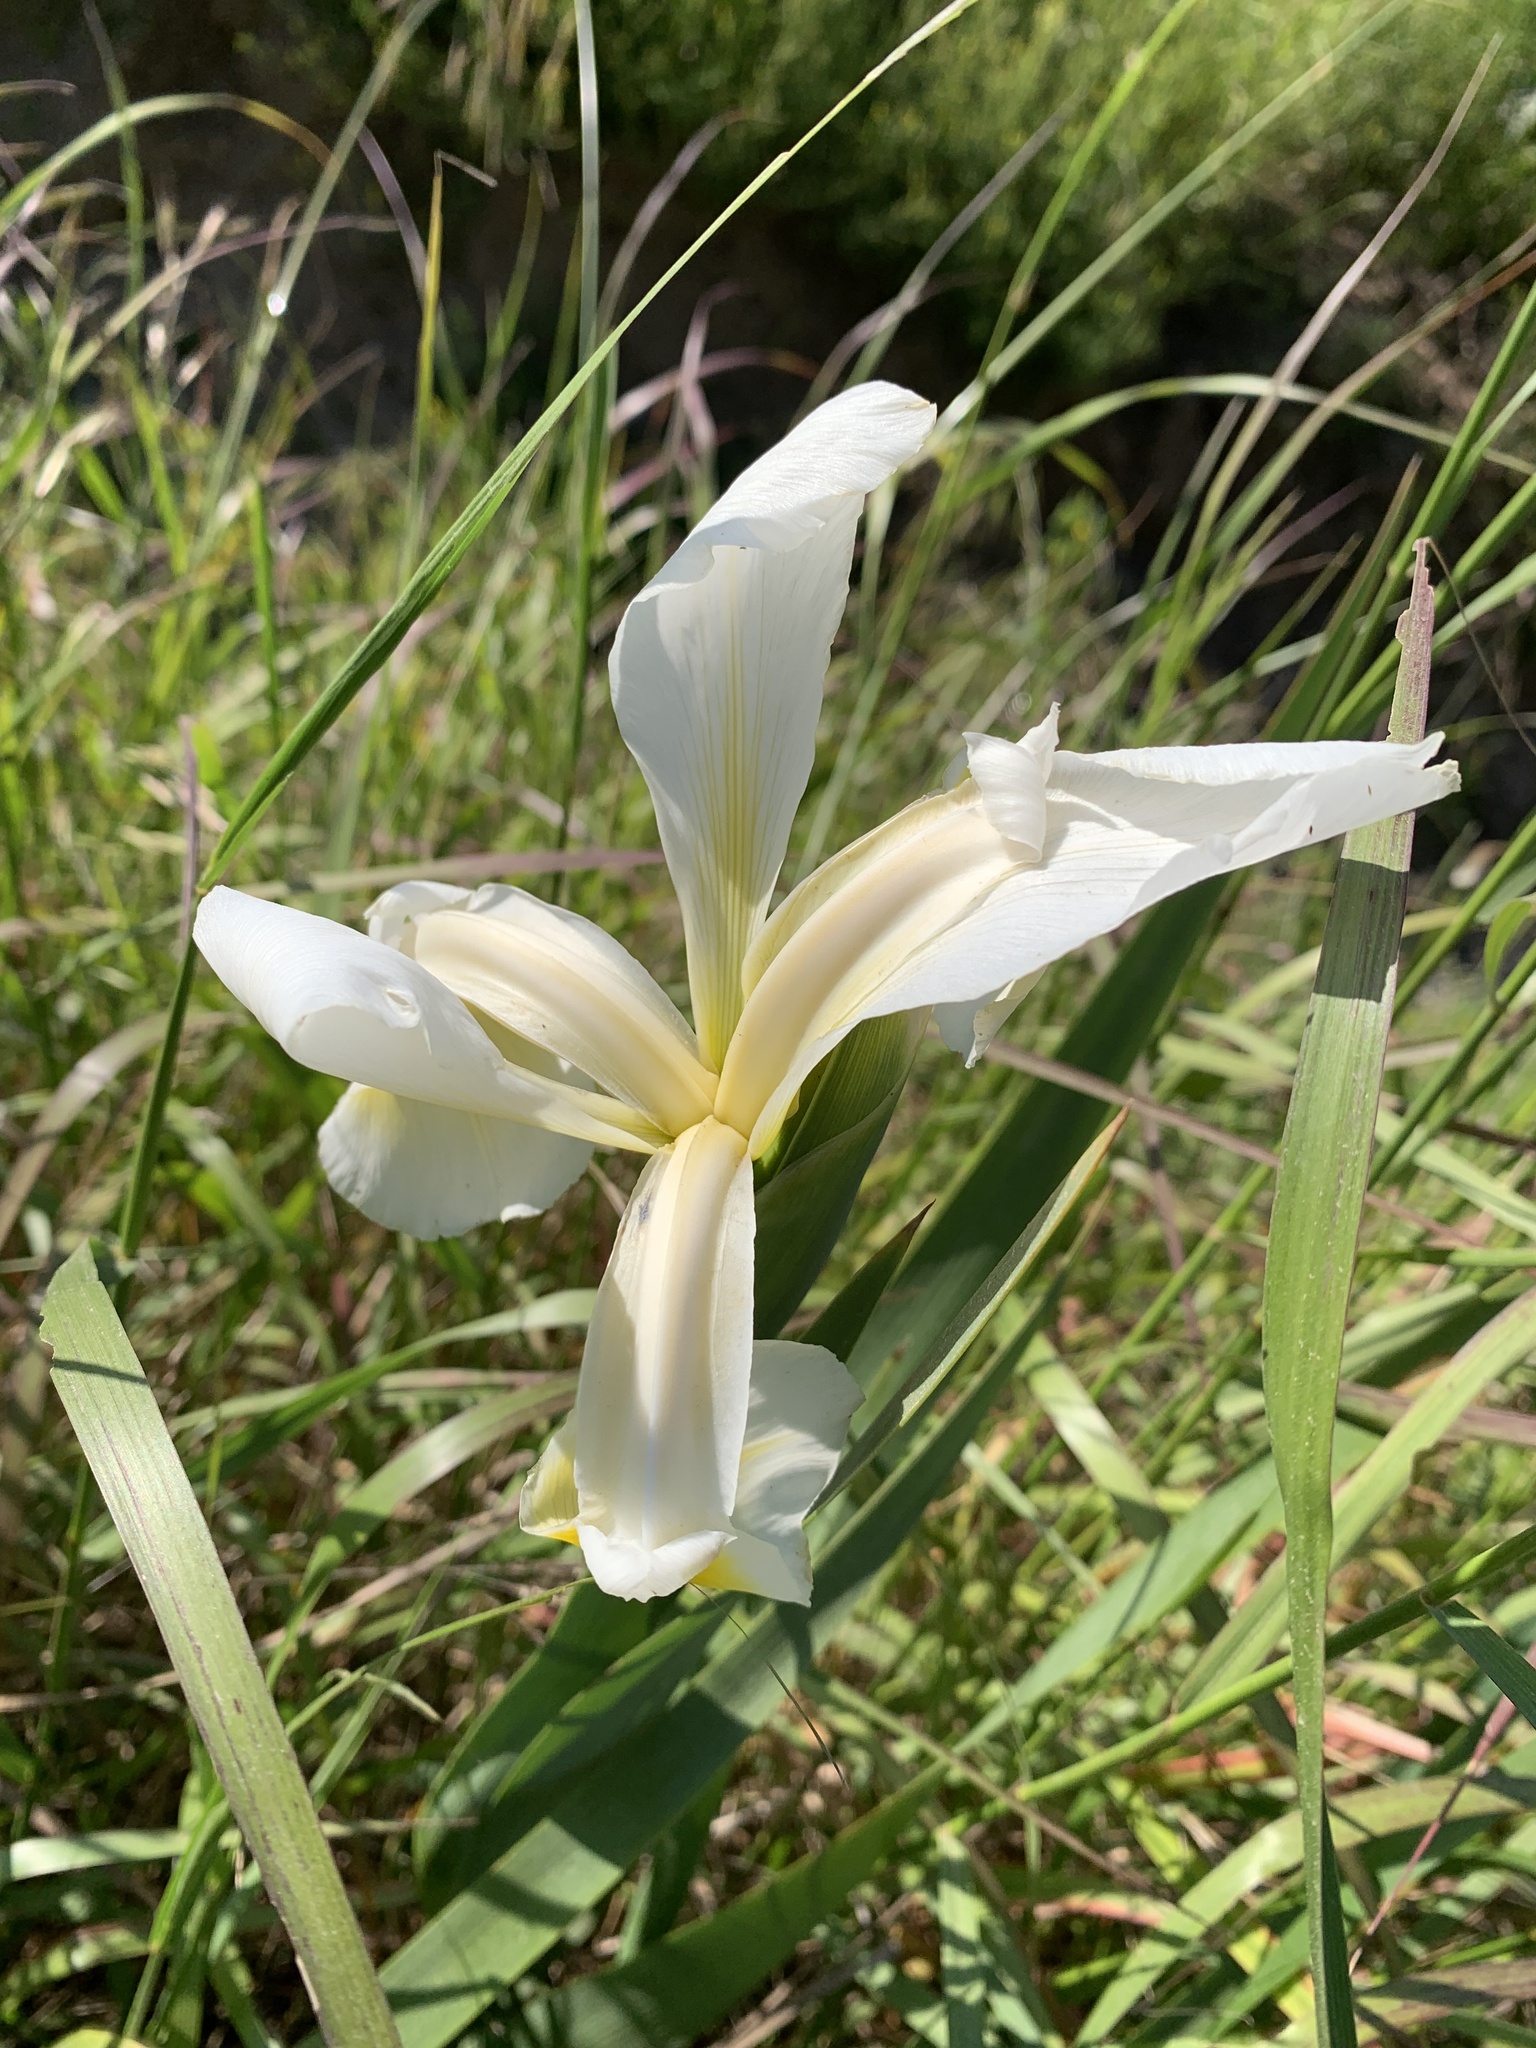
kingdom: Plantae
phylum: Tracheophyta
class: Liliopsida
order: Asparagales
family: Iridaceae
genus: Iris
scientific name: Iris orientalis
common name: Turkish iris
